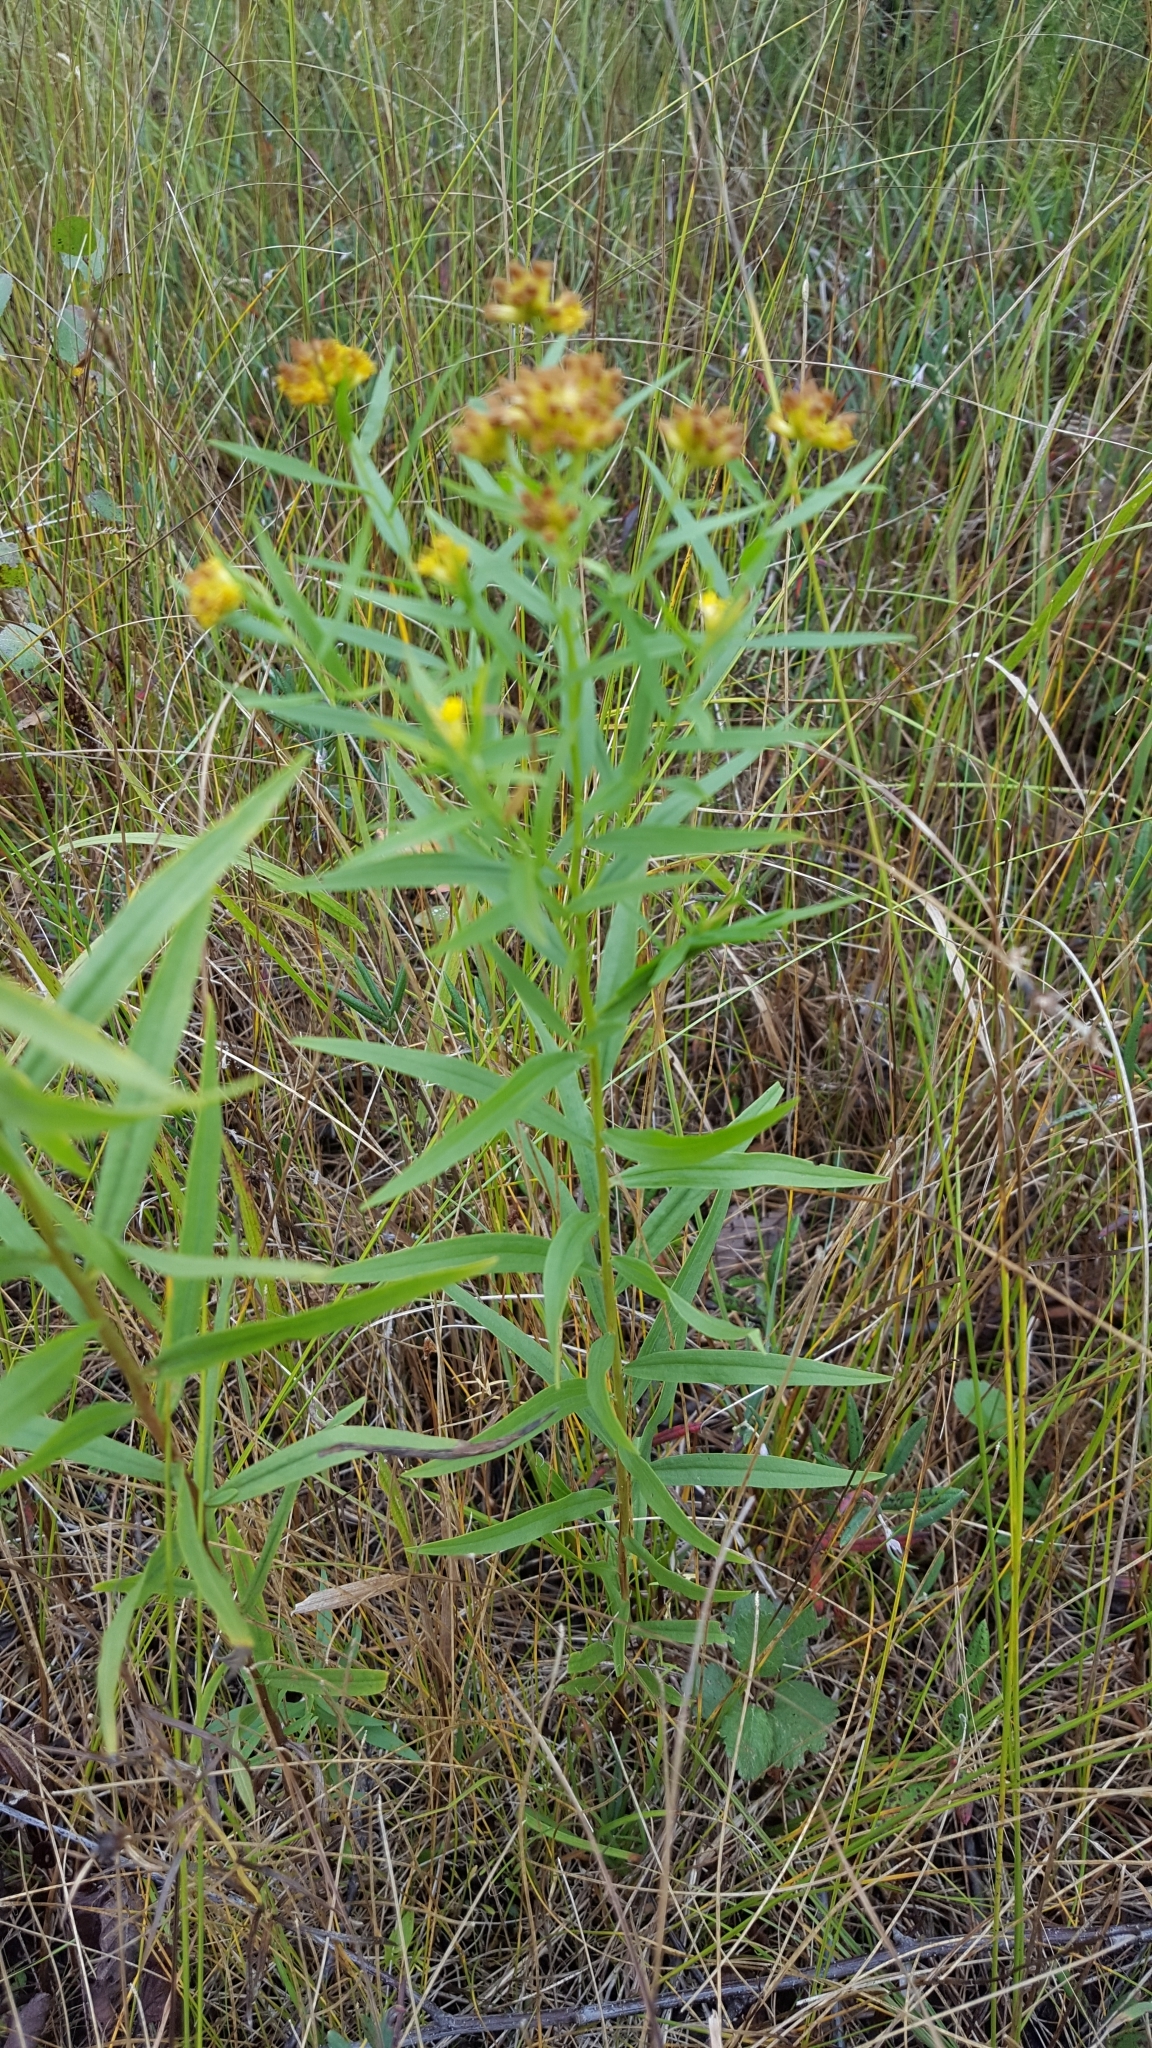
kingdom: Plantae
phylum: Tracheophyta
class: Magnoliopsida
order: Asterales
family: Asteraceae
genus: Euthamia
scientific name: Euthamia graminifolia
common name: Common goldentop
